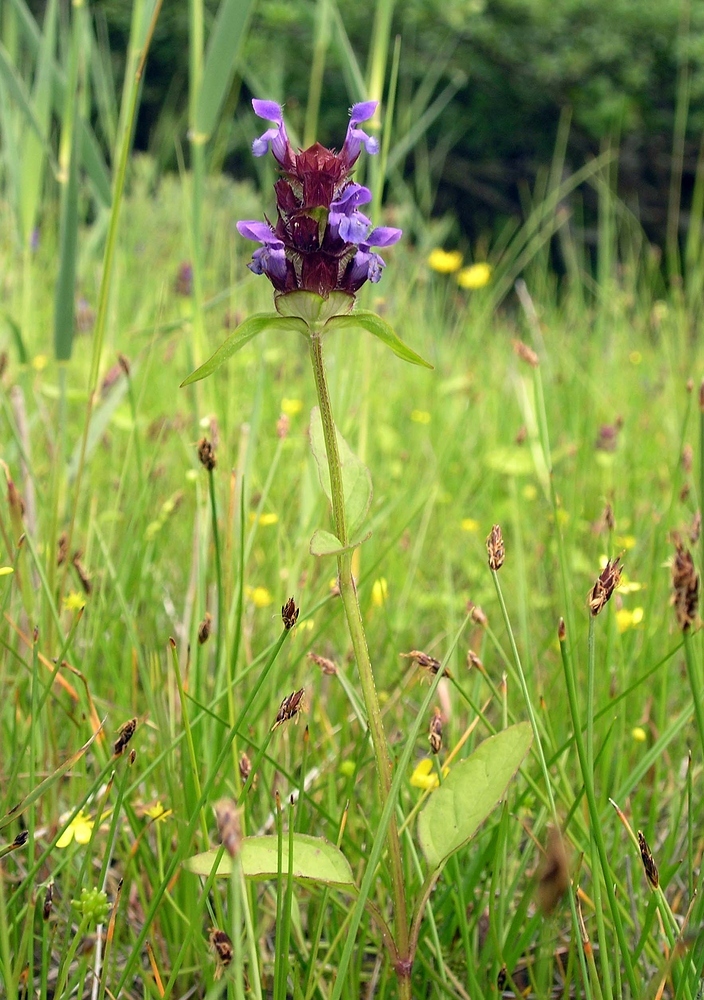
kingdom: Plantae
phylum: Tracheophyta
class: Magnoliopsida
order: Lamiales
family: Lamiaceae
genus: Prunella
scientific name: Prunella vulgaris
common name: Heal-all
